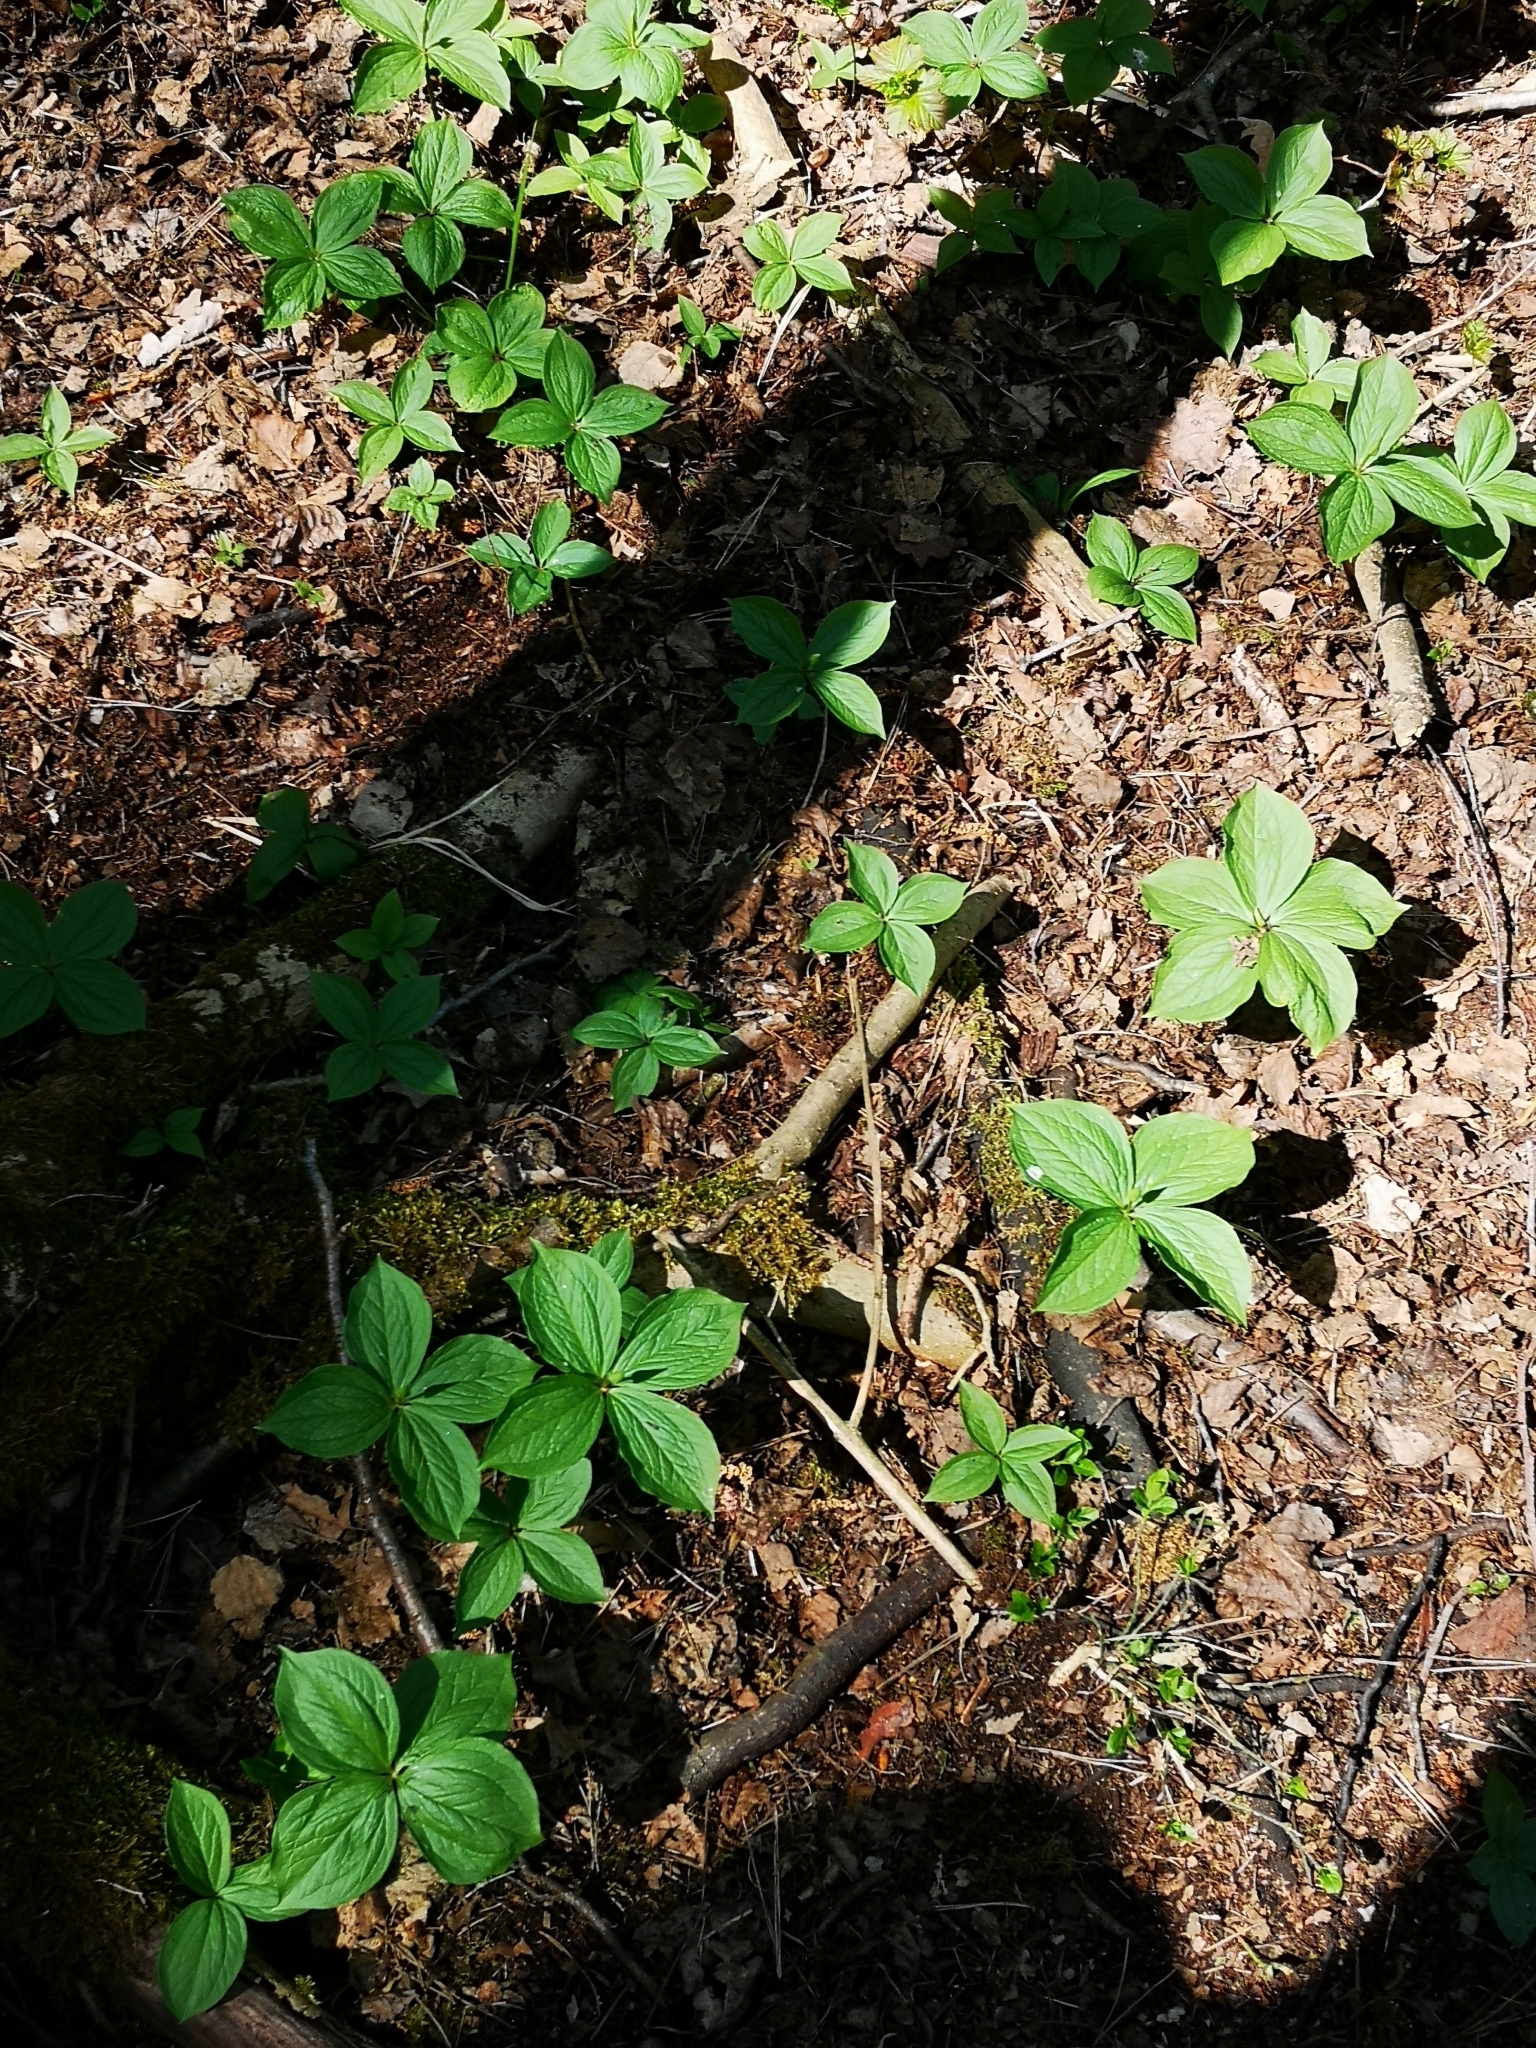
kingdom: Plantae
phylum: Tracheophyta
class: Liliopsida
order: Liliales
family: Melanthiaceae
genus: Paris
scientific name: Paris quadrifolia
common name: Herb-paris
